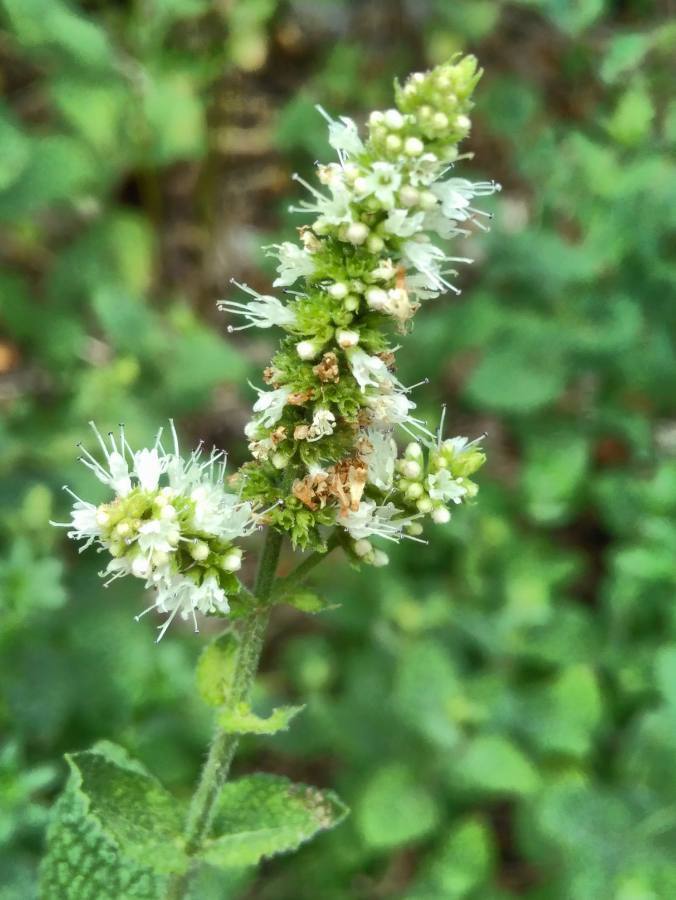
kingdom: Plantae
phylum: Tracheophyta
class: Magnoliopsida
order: Lamiales
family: Lamiaceae
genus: Mentha
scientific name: Mentha suaveolens
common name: Apple mint
